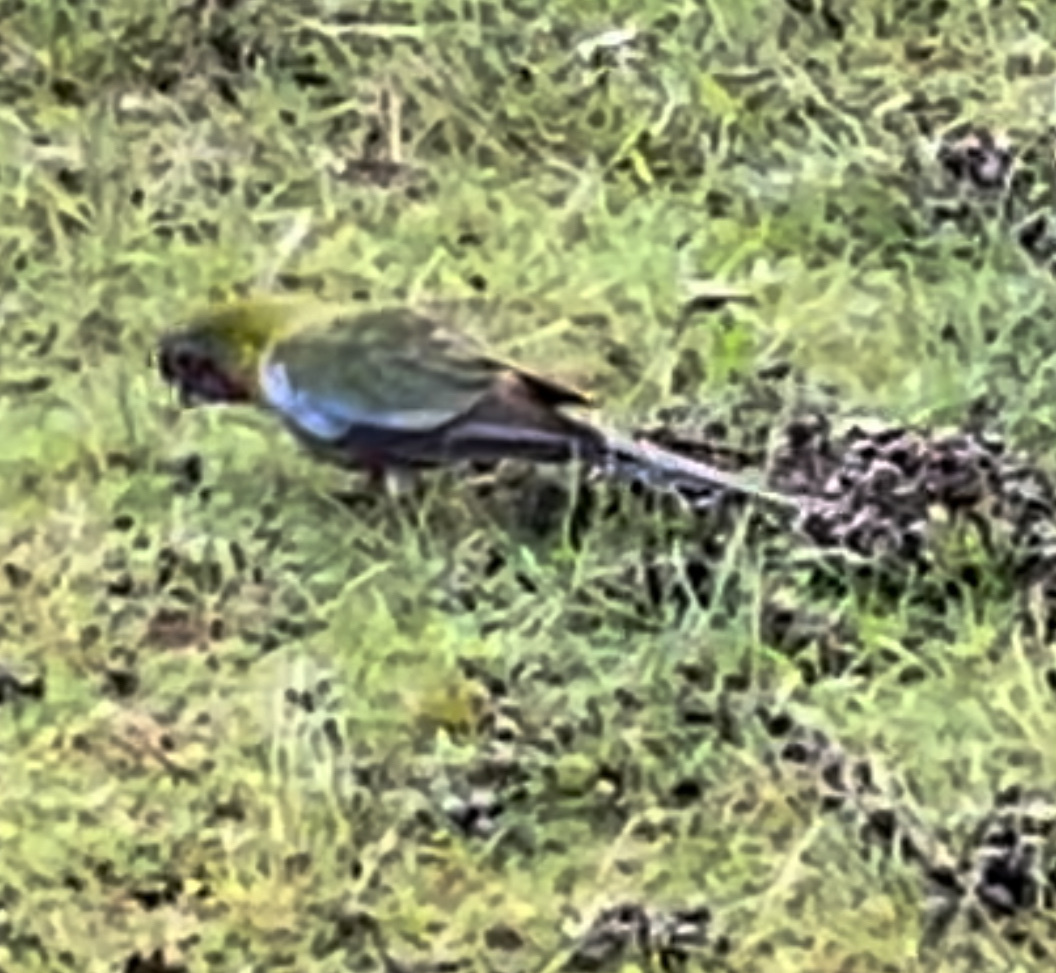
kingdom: Animalia
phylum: Chordata
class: Aves
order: Psittaciformes
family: Psittacidae
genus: Platycercus
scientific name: Platycercus elegans
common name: Crimson rosella
